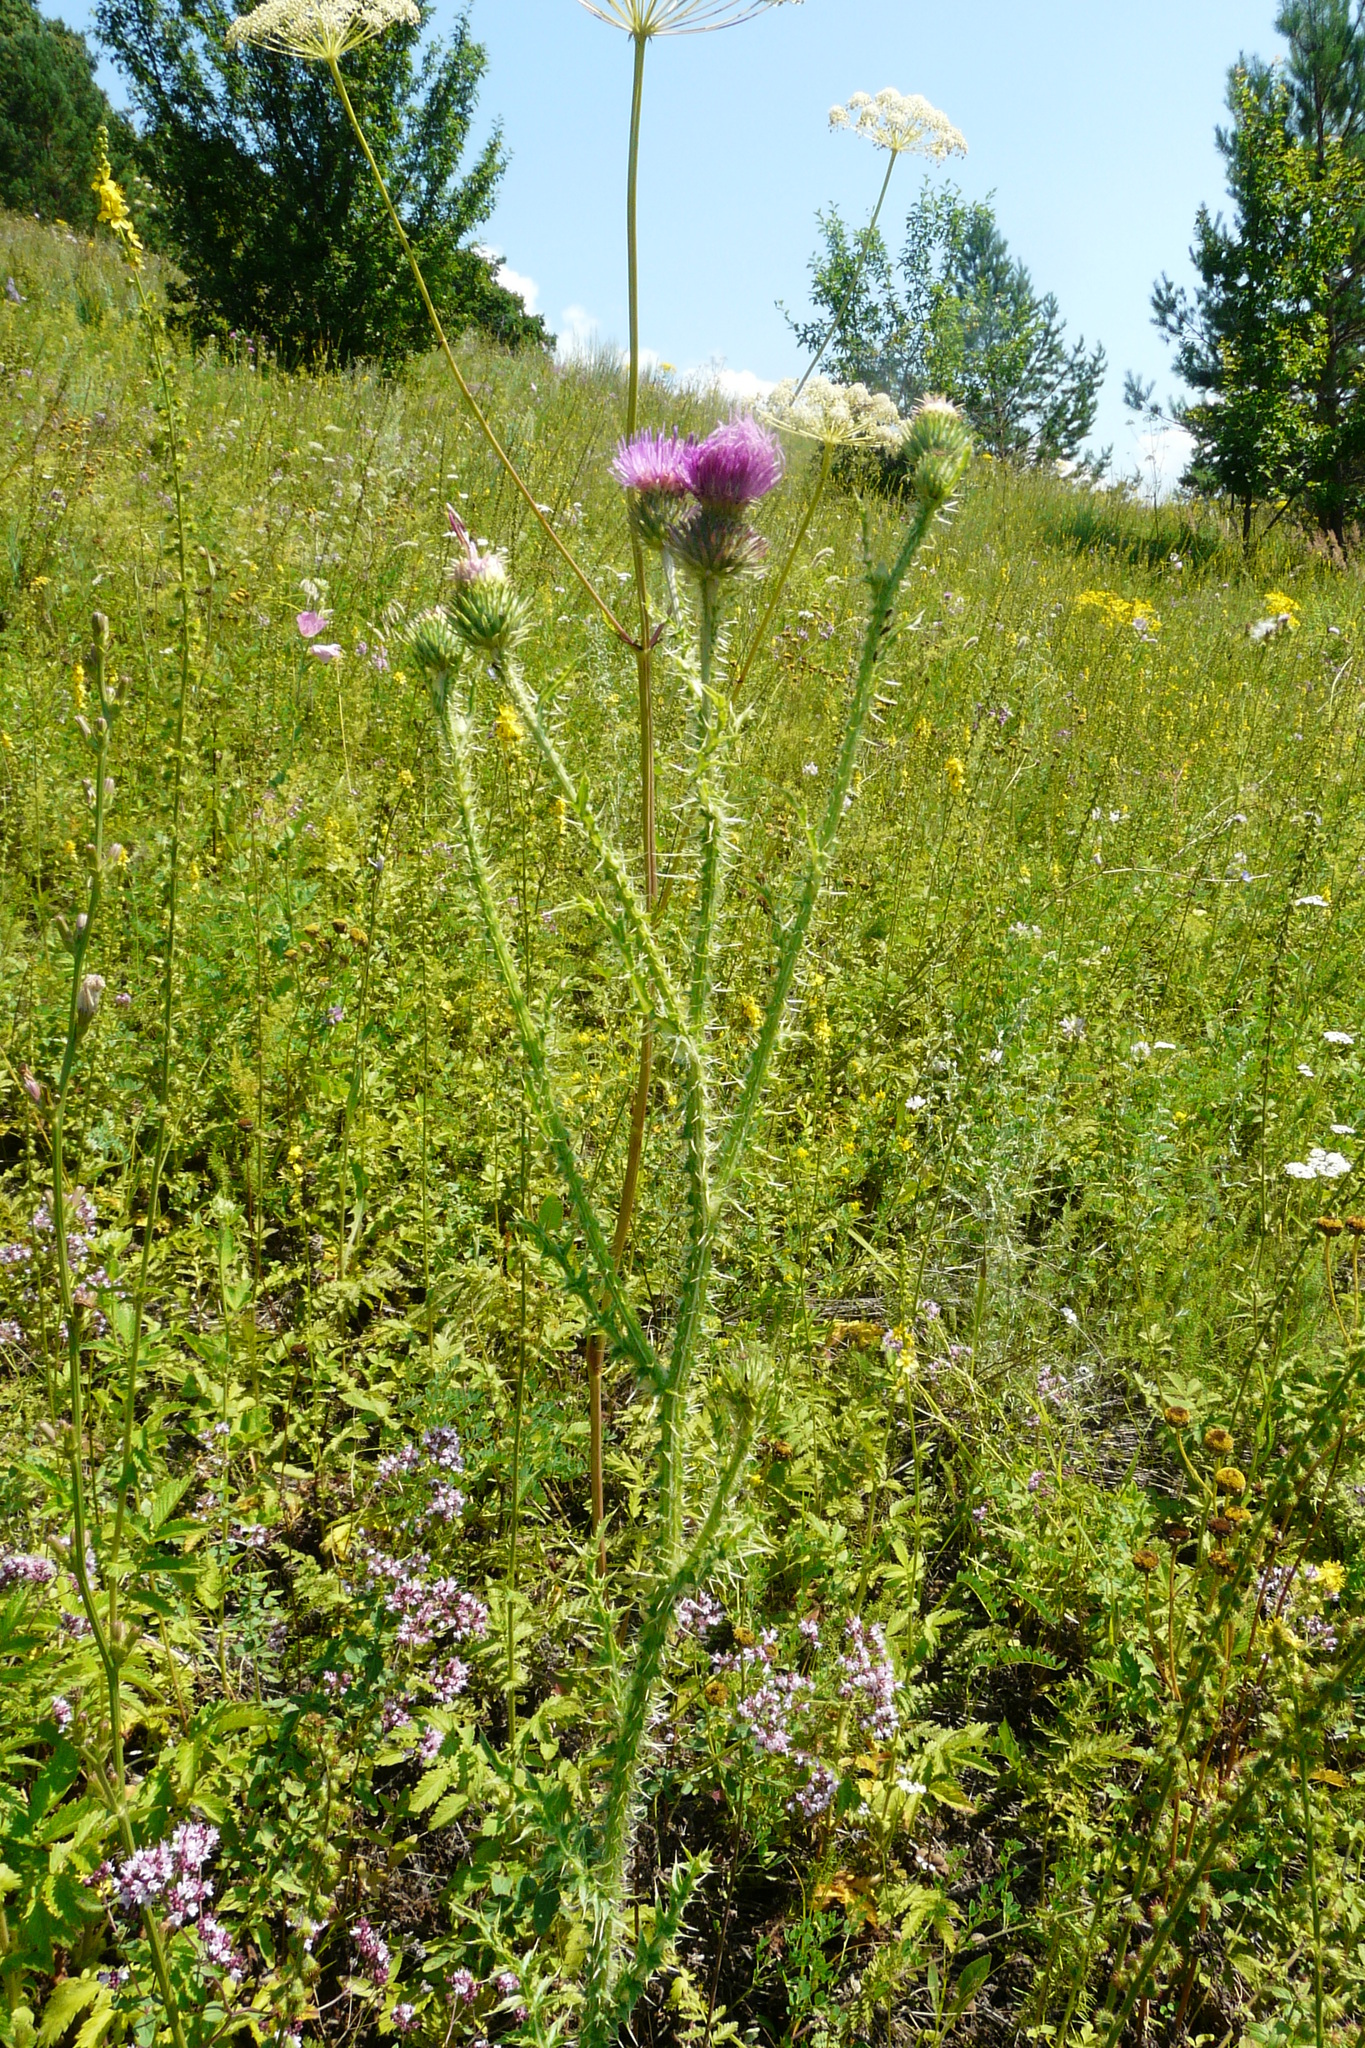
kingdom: Plantae
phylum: Tracheophyta
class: Magnoliopsida
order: Asterales
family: Asteraceae
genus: Carduus
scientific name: Carduus acanthoides
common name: Plumeless thistle
